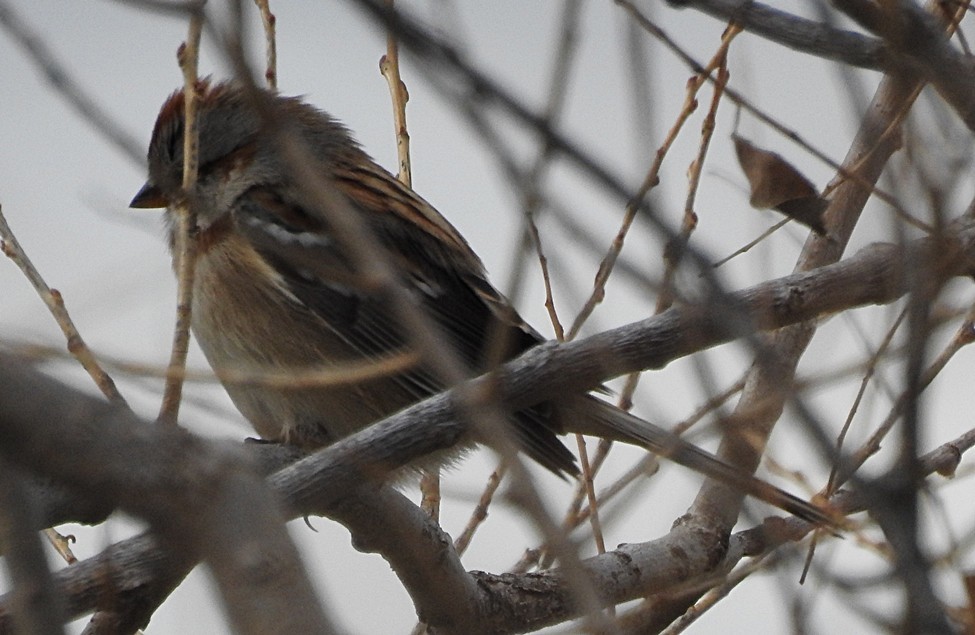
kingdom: Animalia
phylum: Chordata
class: Aves
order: Passeriformes
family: Passerellidae
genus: Spizelloides
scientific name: Spizelloides arborea
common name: American tree sparrow
